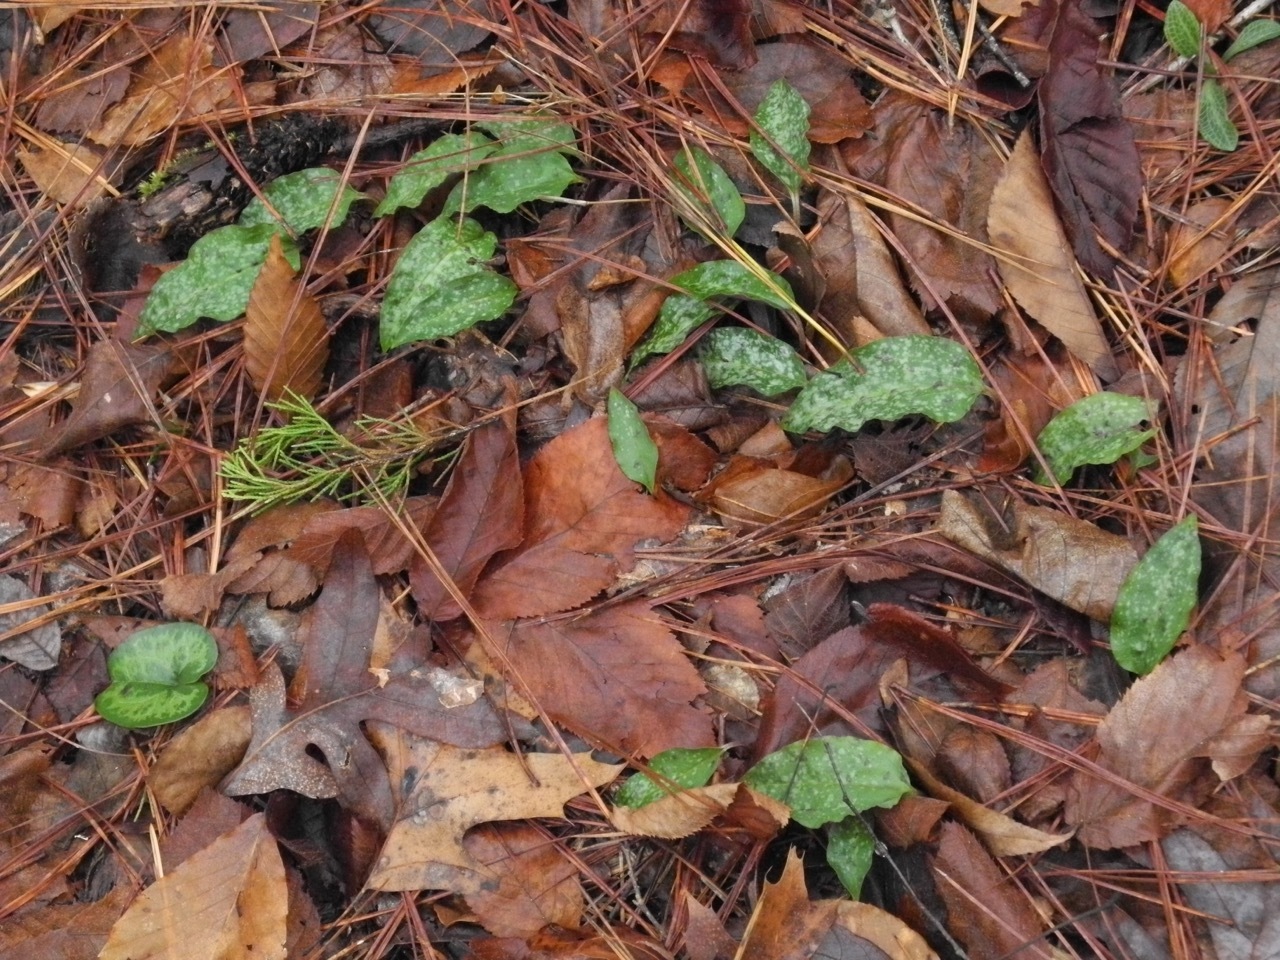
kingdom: Plantae
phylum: Tracheophyta
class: Liliopsida
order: Asparagales
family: Orchidaceae
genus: Tipularia
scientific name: Tipularia discolor
